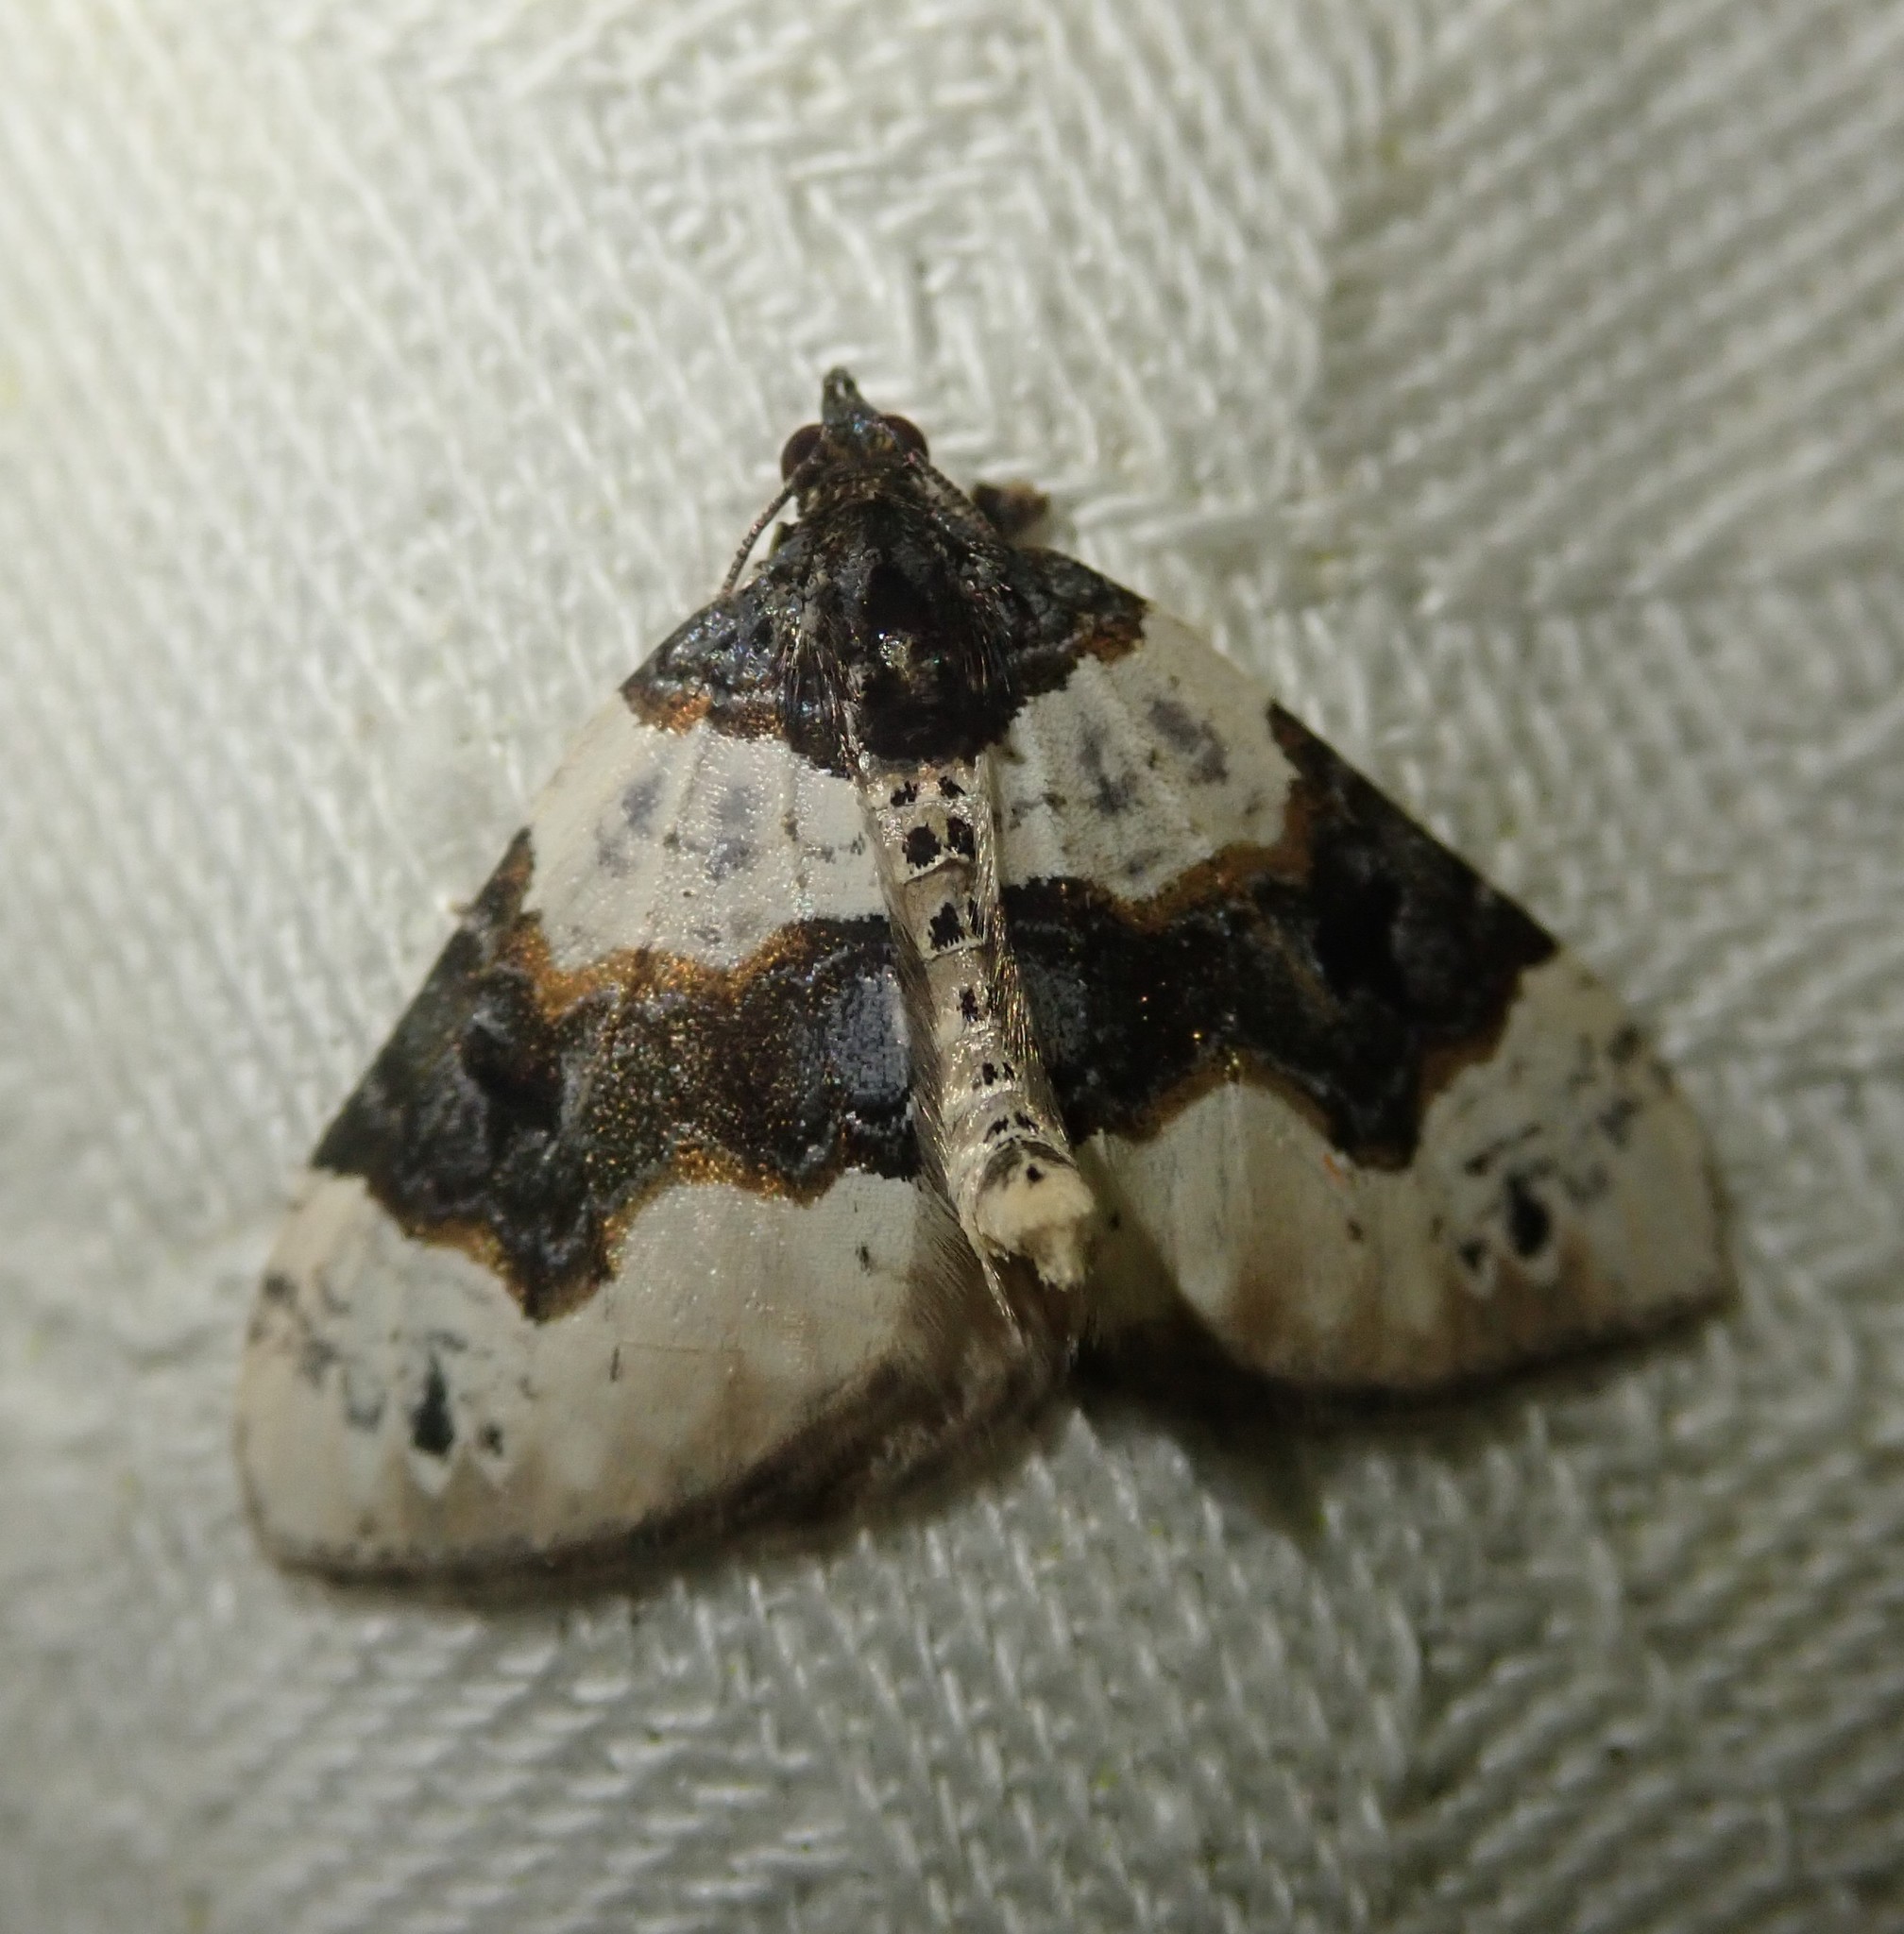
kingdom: Animalia
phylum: Arthropoda
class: Insecta
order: Lepidoptera
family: Geometridae
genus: Cosmorhoe
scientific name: Cosmorhoe ocellata
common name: Purple bar
